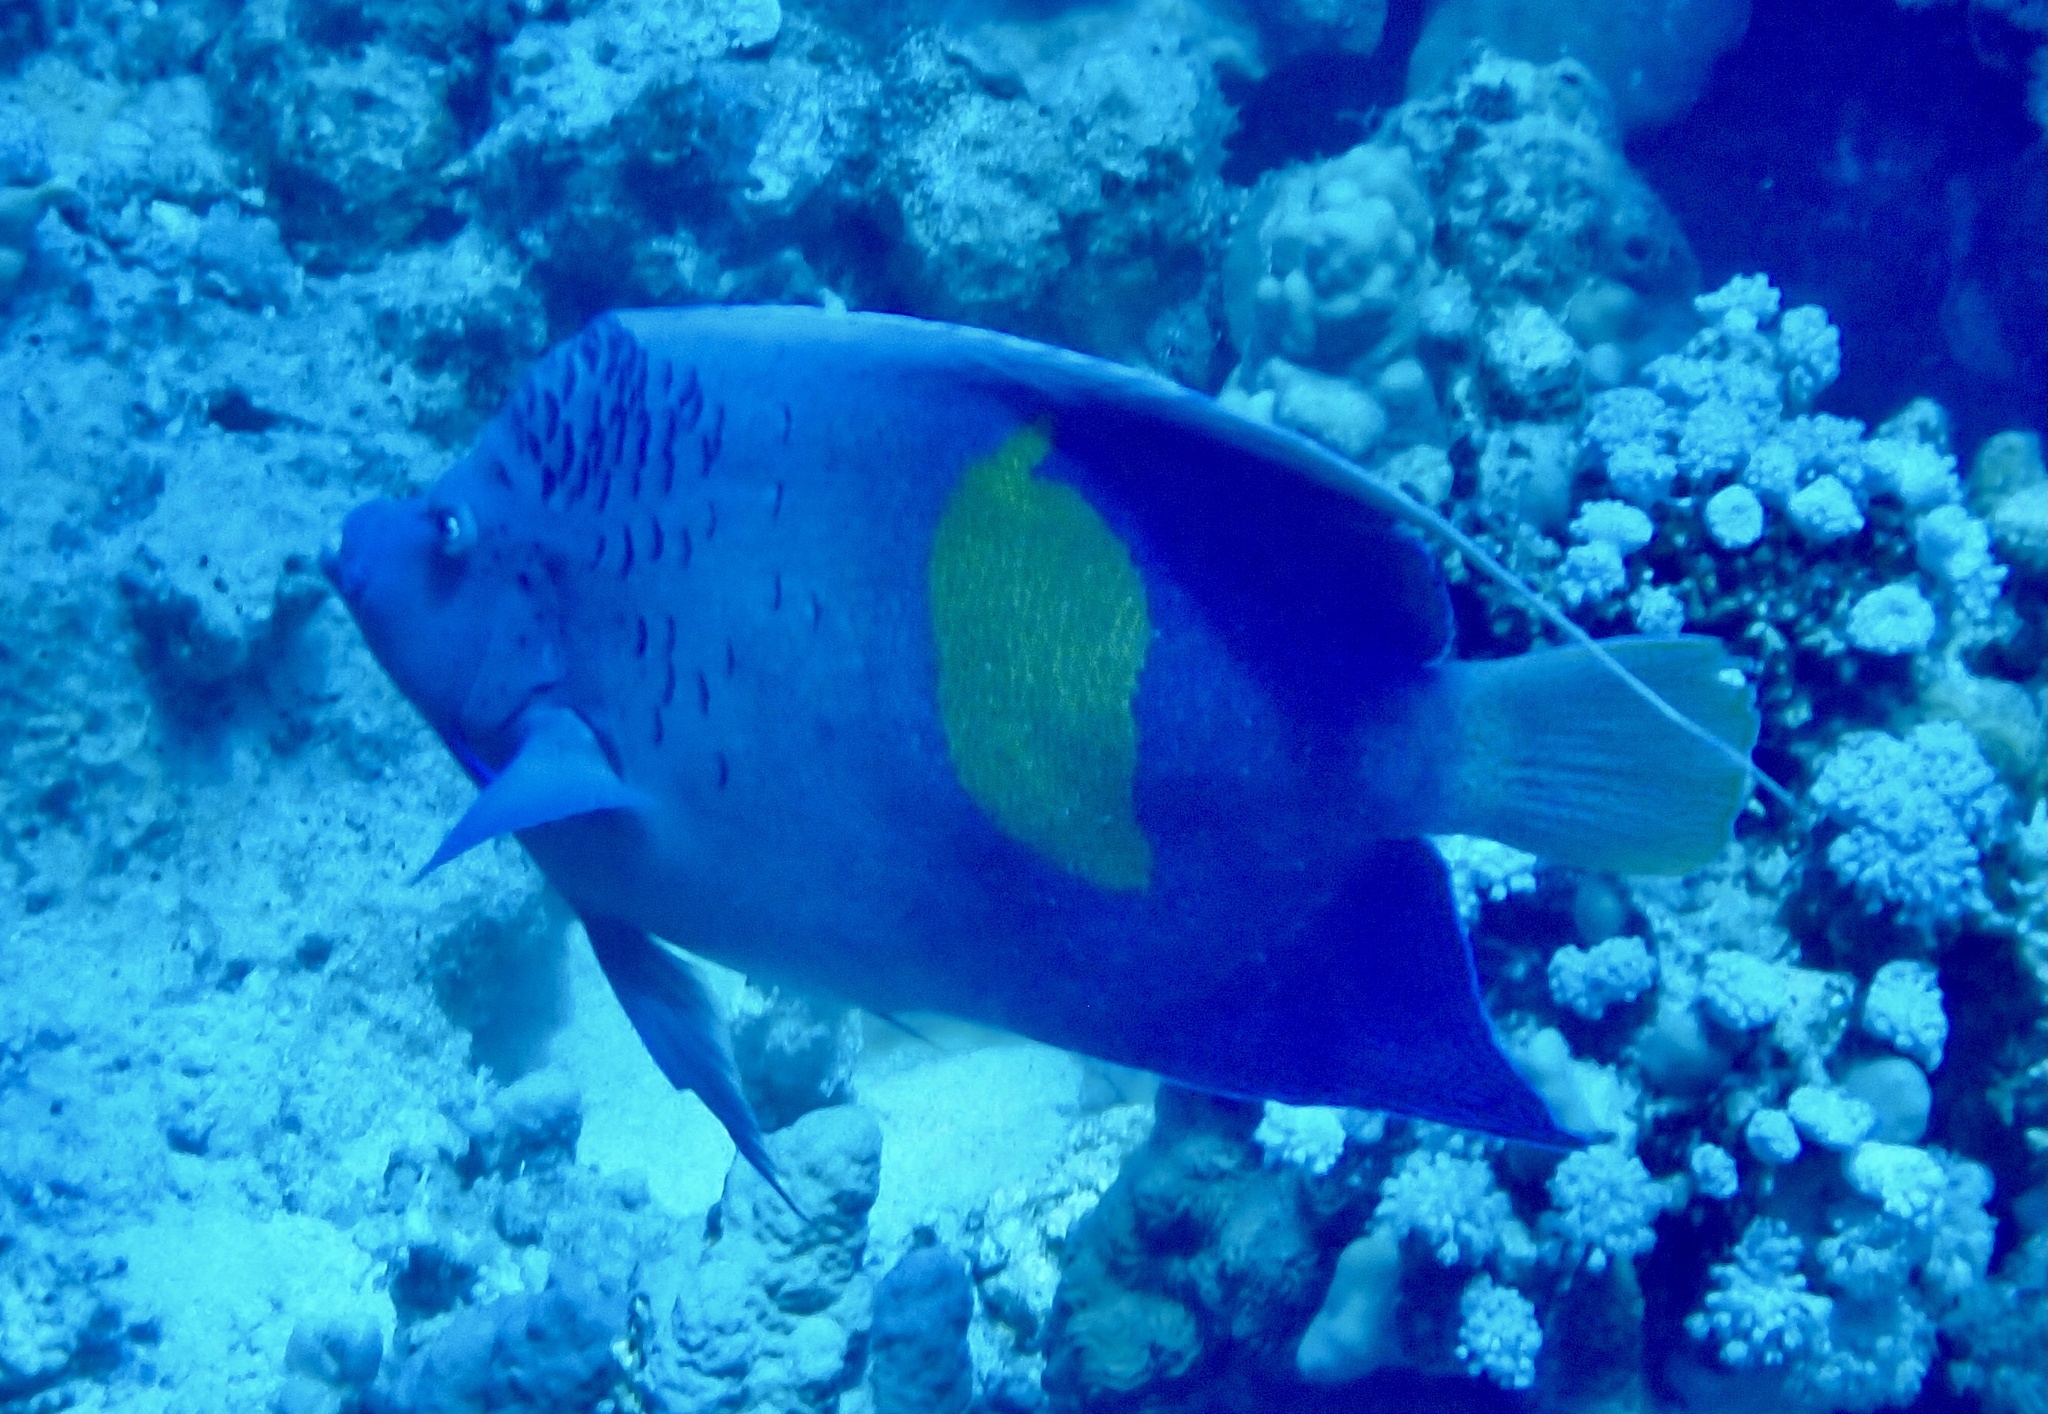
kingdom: Animalia
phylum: Chordata
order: Perciformes
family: Pomacanthidae
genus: Pomacanthus
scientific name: Pomacanthus maculosus
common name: Yellowbar angelfish
